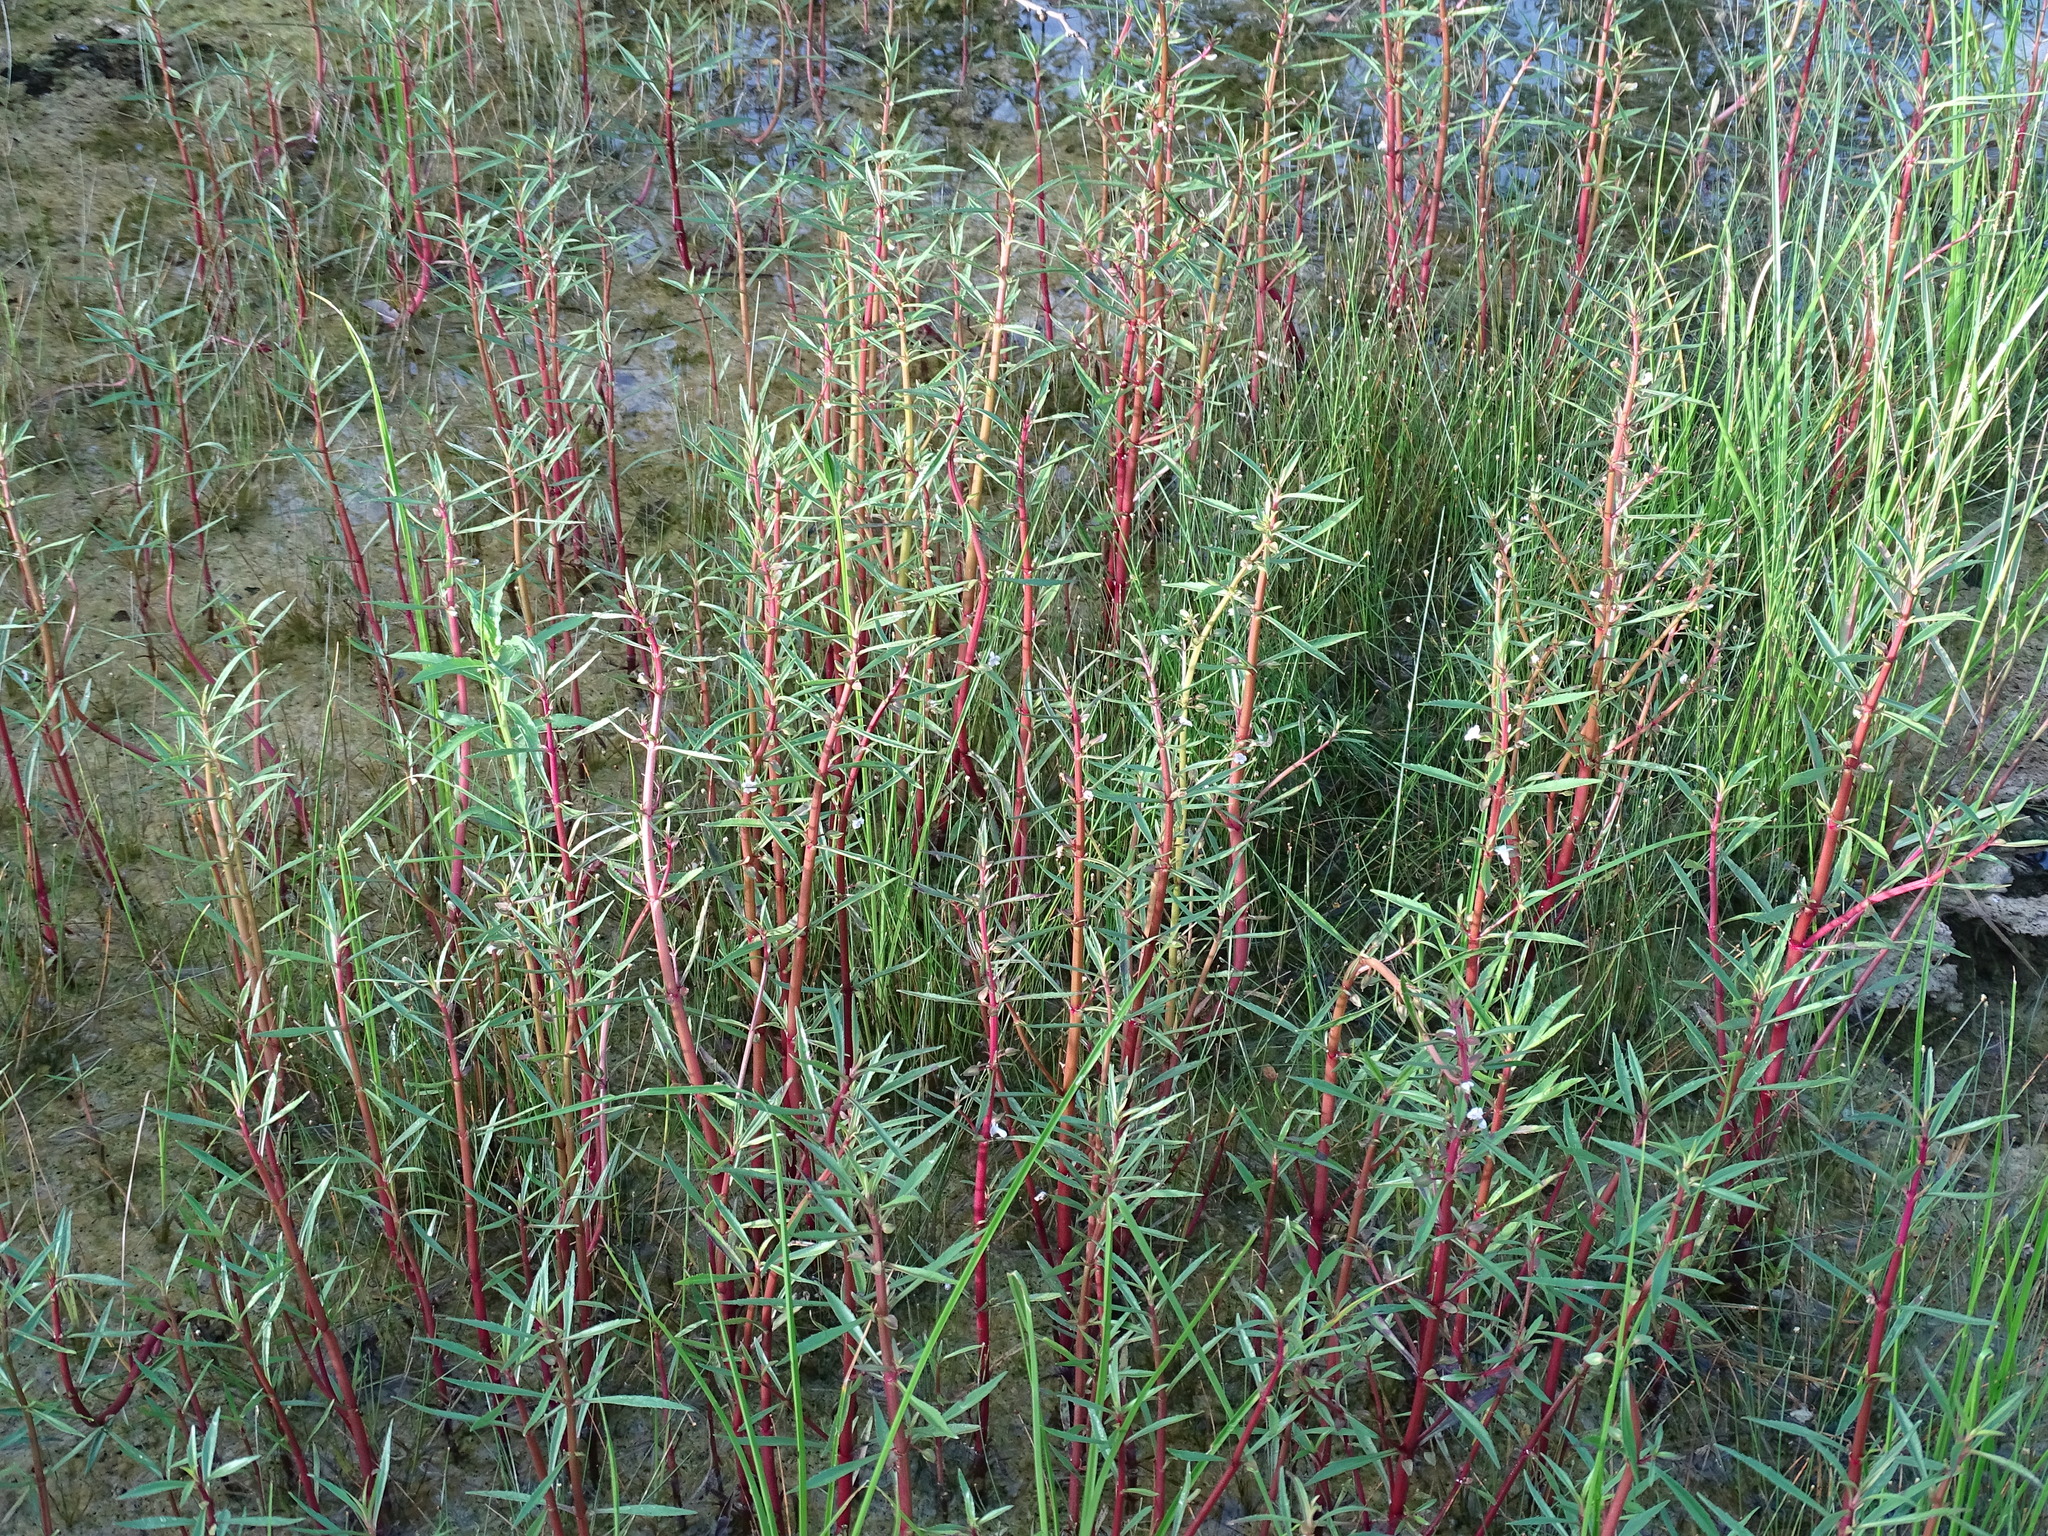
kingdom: Plantae
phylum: Tracheophyta
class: Magnoliopsida
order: Lamiales
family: Plantaginaceae
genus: Bacopa
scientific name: Bacopa lacertosa
